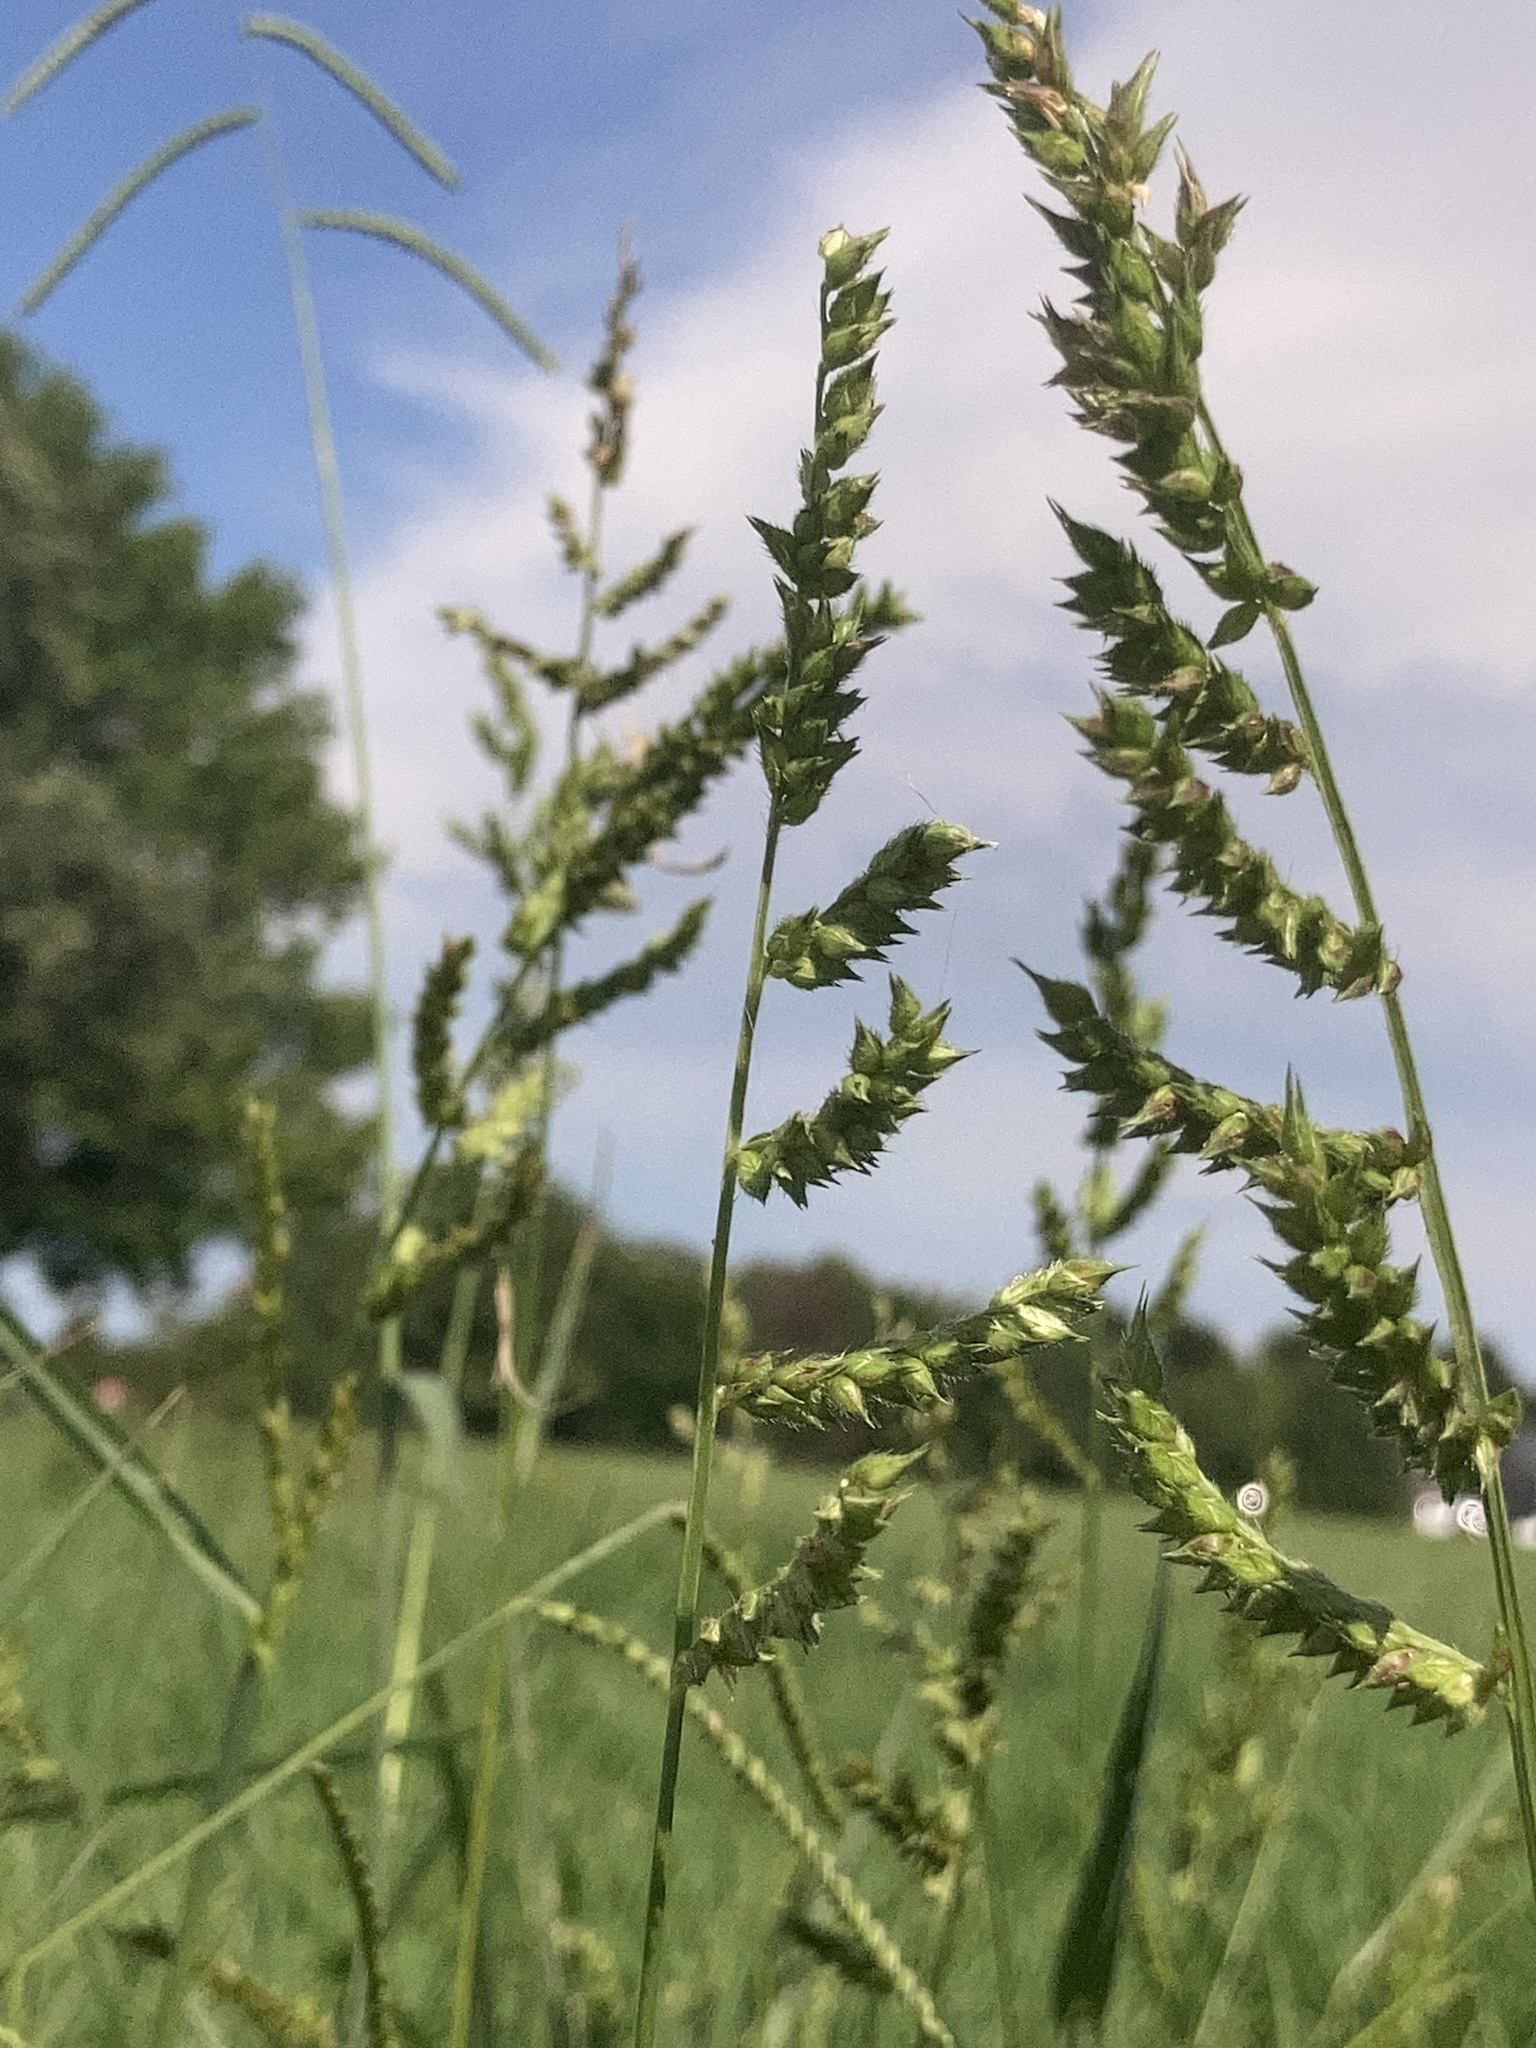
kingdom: Plantae
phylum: Tracheophyta
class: Liliopsida
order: Poales
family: Poaceae
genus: Echinochloa
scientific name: Echinochloa crus-galli
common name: Cockspur
